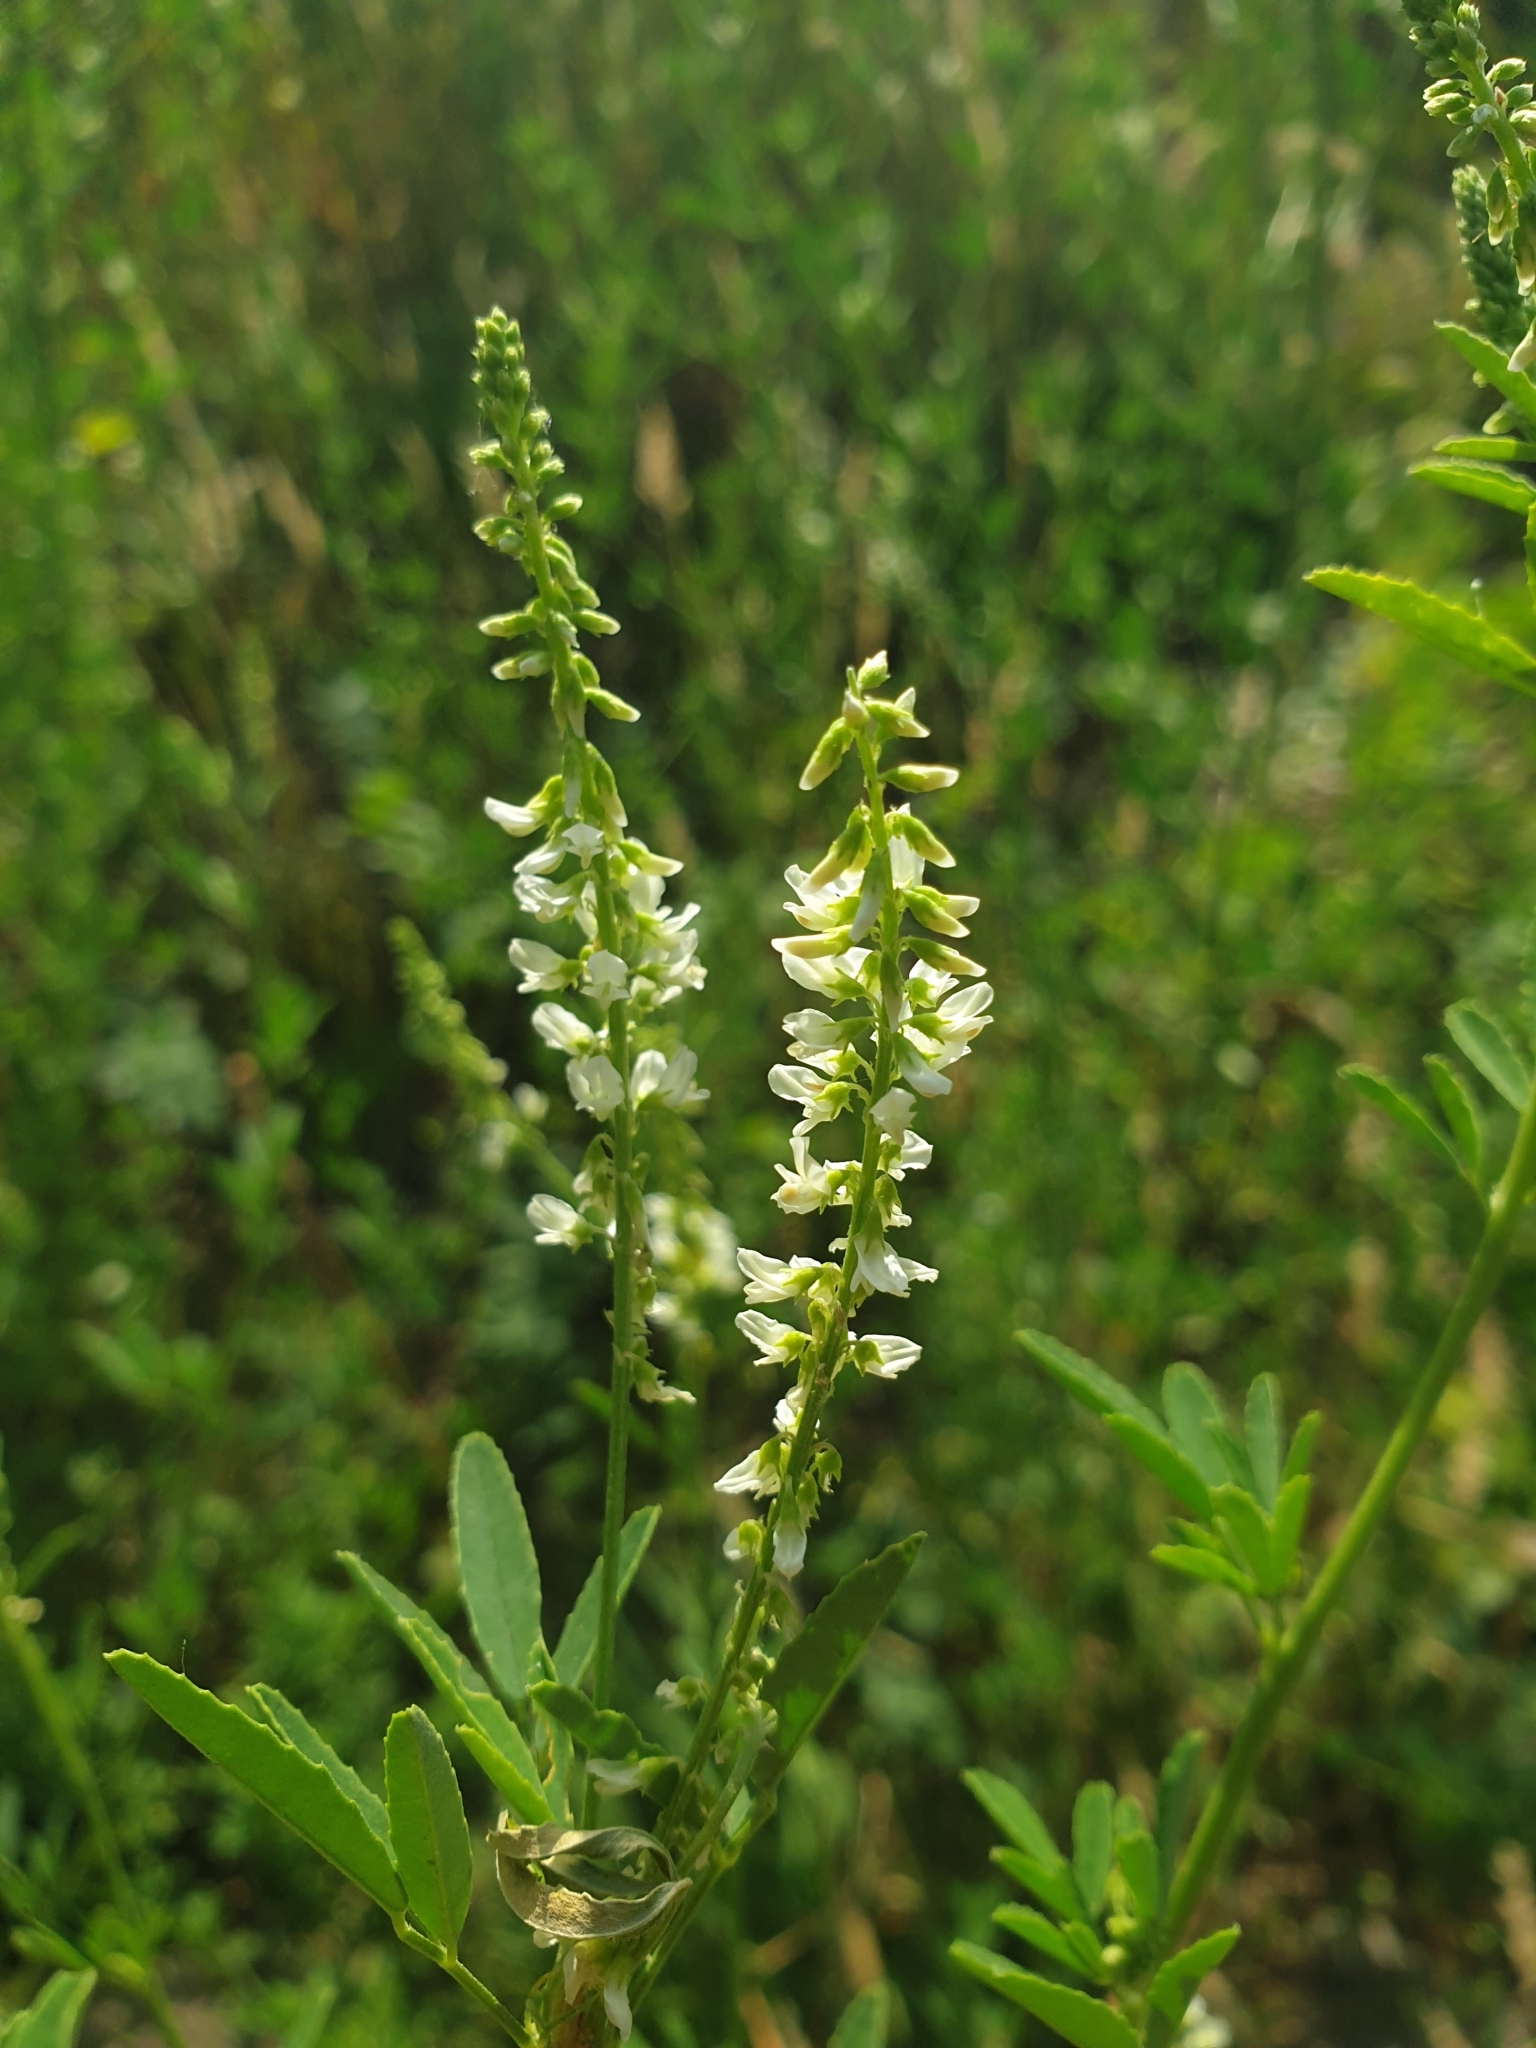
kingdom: Plantae
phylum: Tracheophyta
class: Magnoliopsida
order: Fabales
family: Fabaceae
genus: Melilotus
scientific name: Melilotus albus
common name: White melilot
